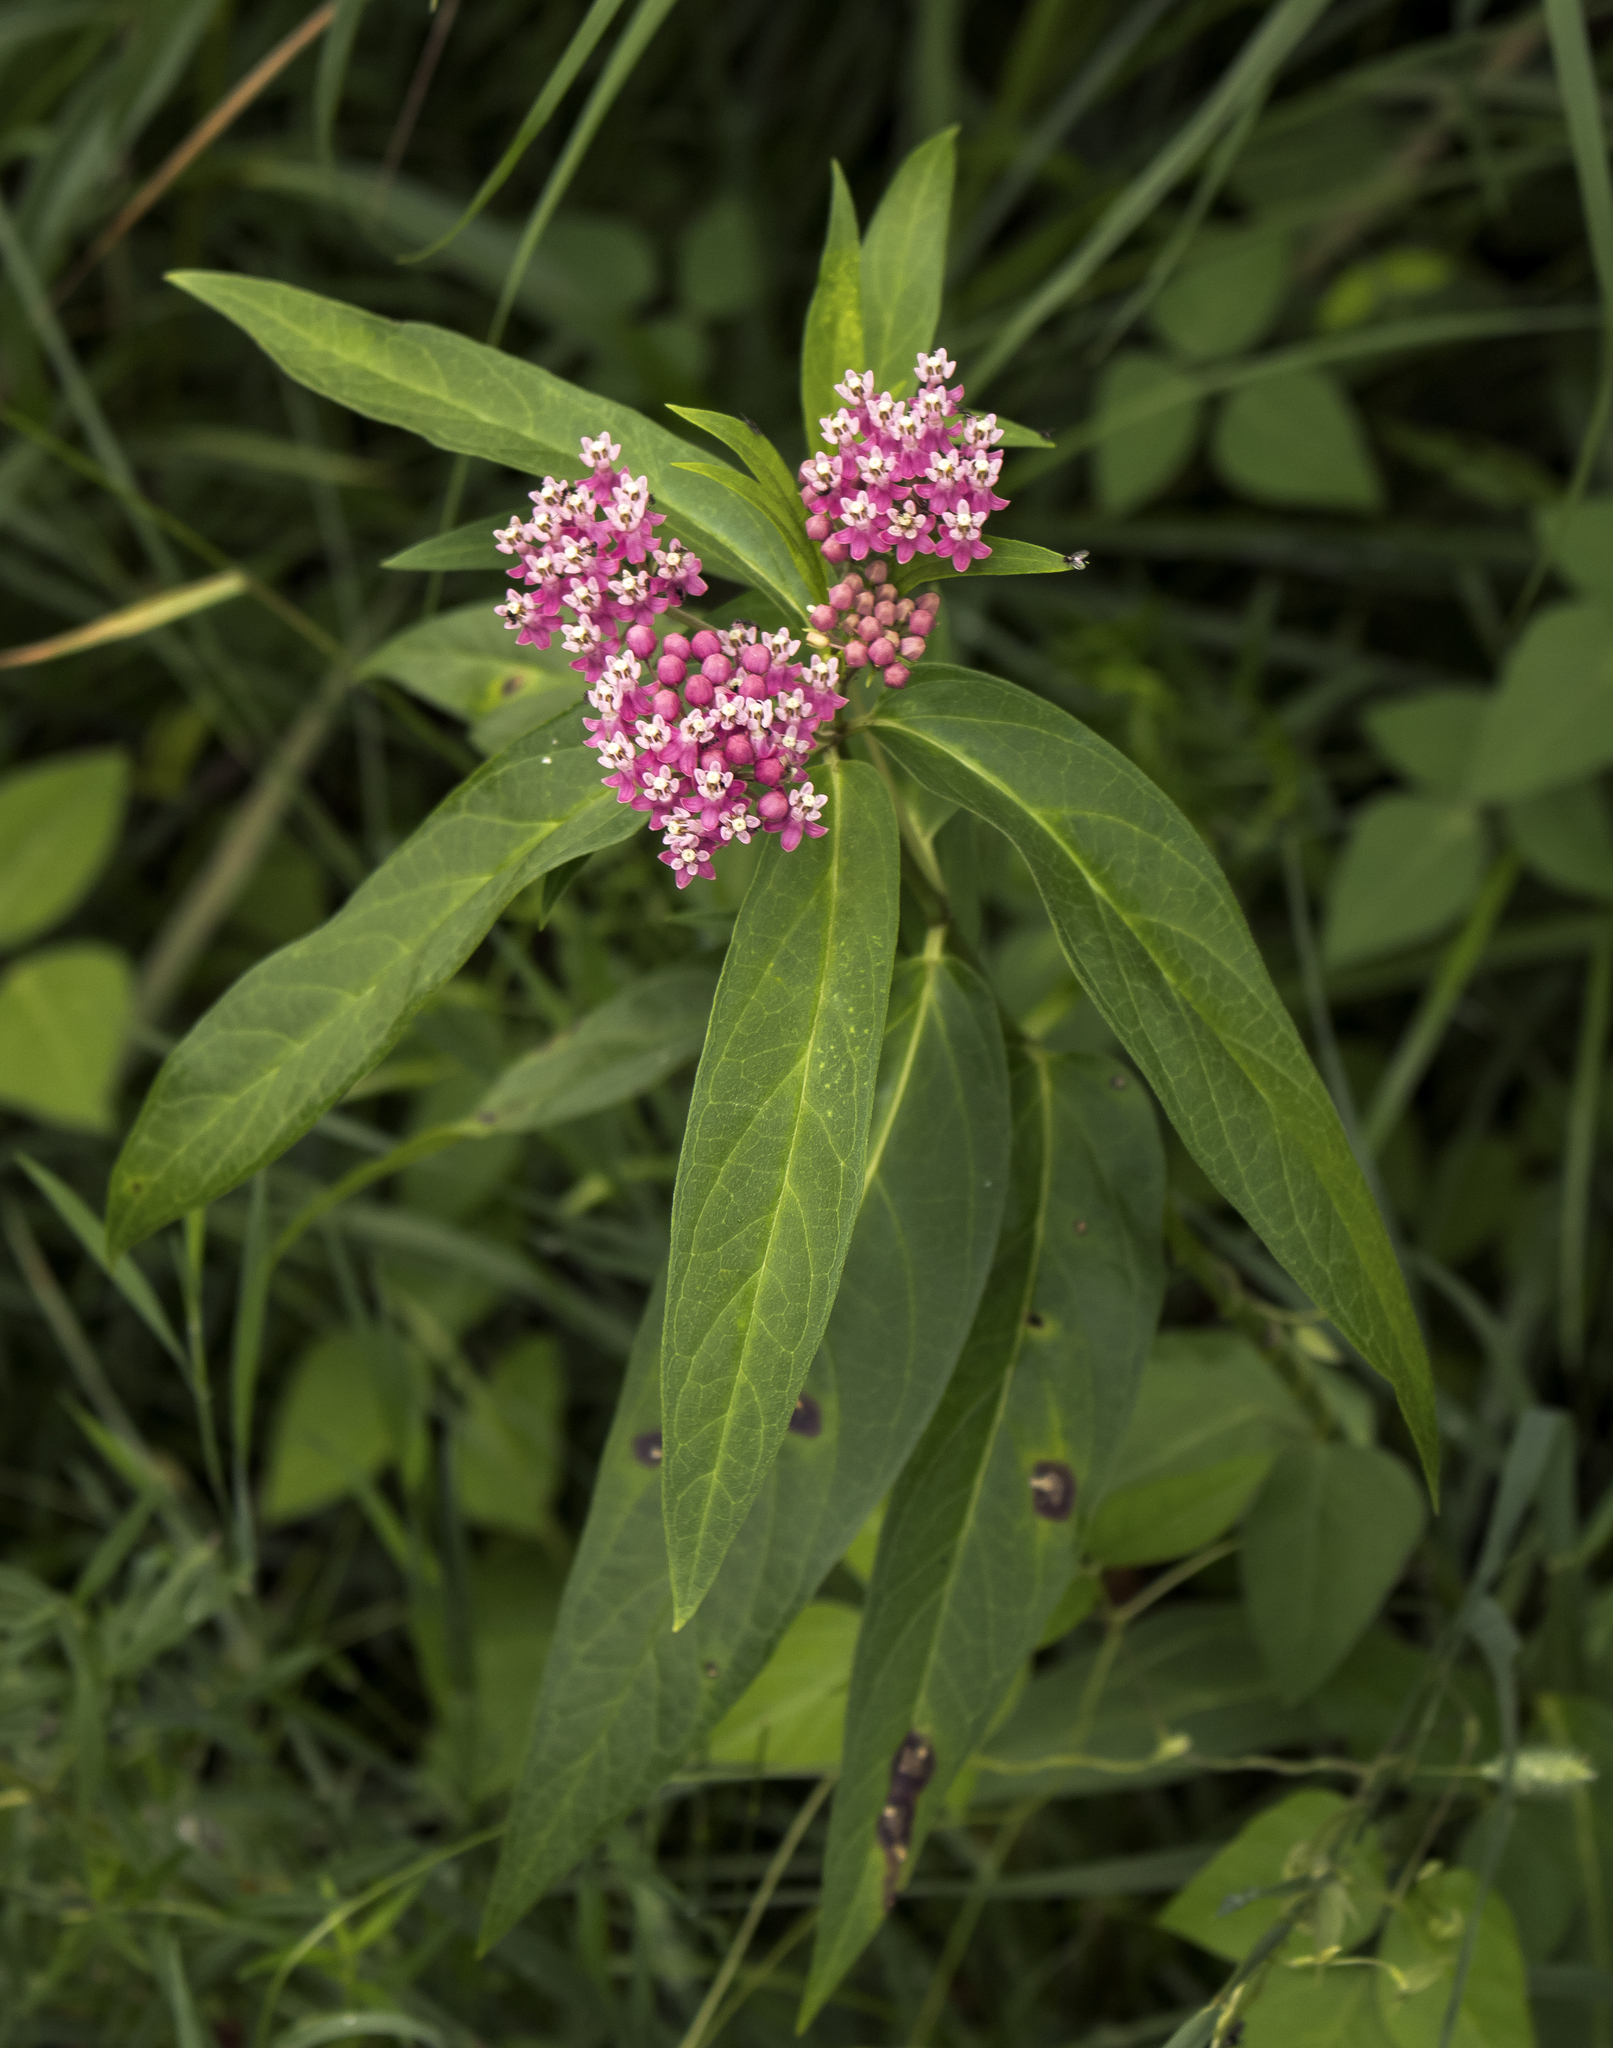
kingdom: Plantae
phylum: Tracheophyta
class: Magnoliopsida
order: Gentianales
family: Apocynaceae
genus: Asclepias
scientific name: Asclepias incarnata
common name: Swamp milkweed
